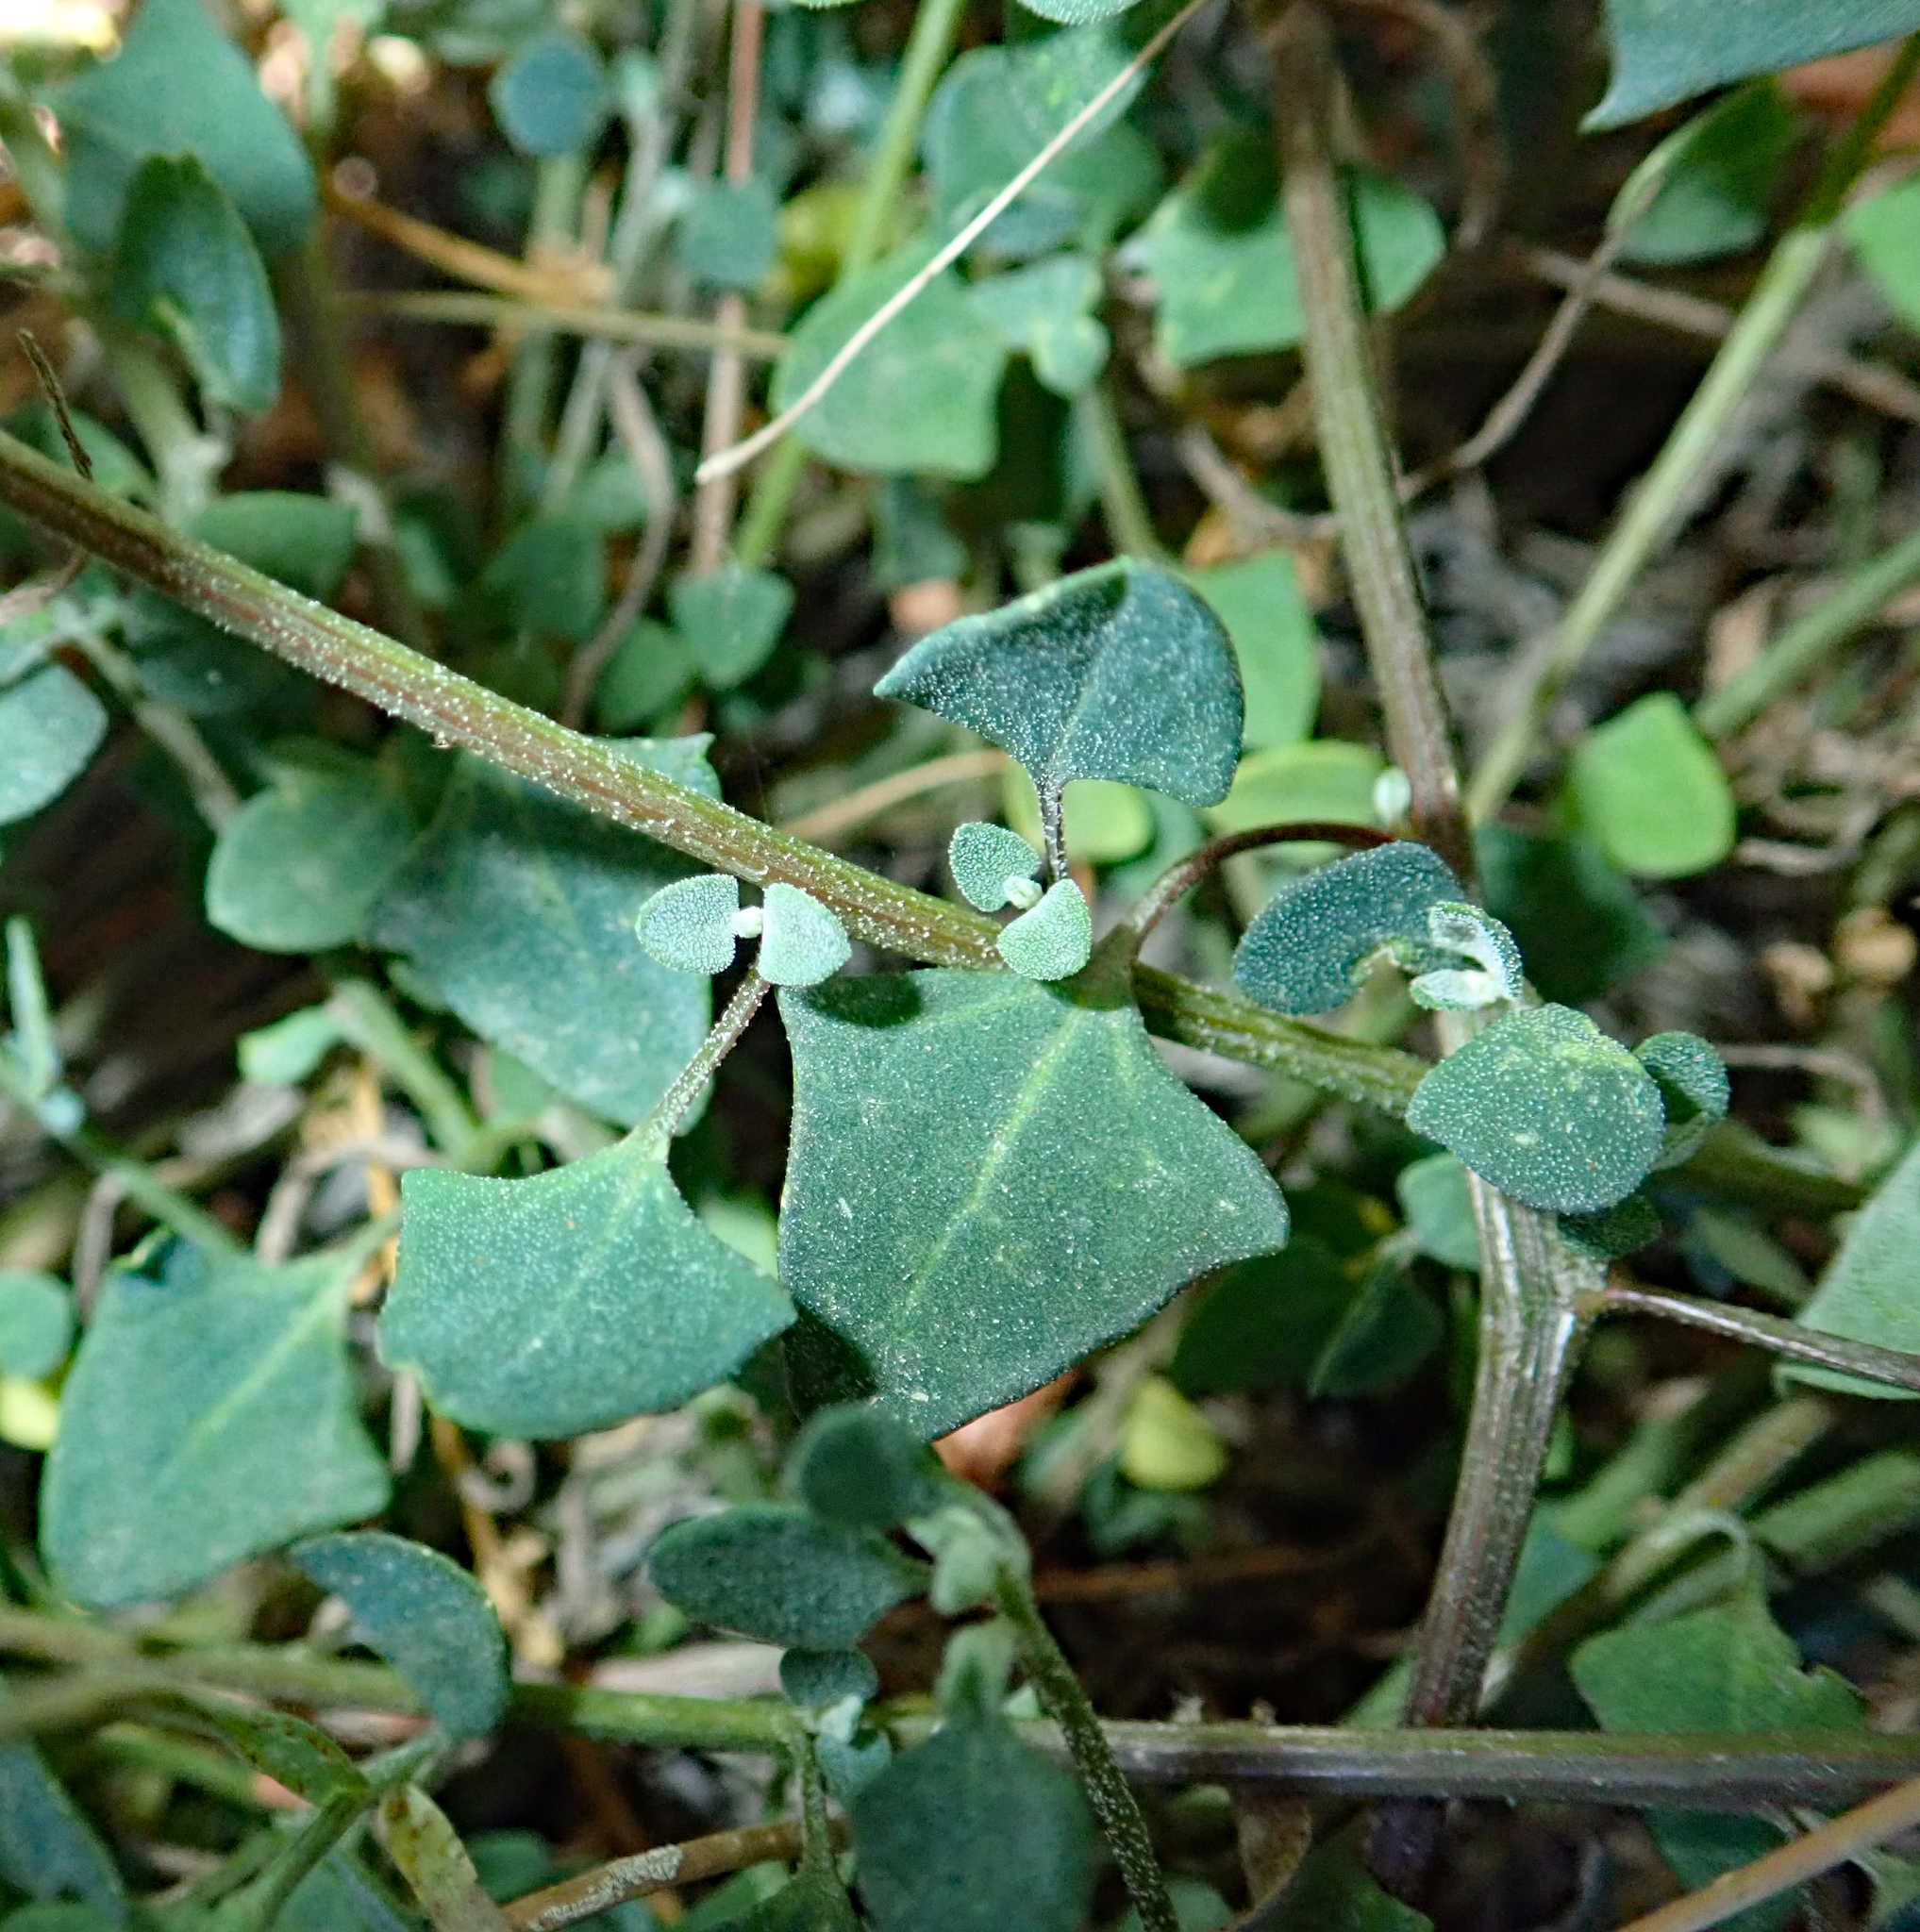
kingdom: Plantae
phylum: Tracheophyta
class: Magnoliopsida
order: Caryophyllales
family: Amaranthaceae
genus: Chenopodium
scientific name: Chenopodium trigonon
